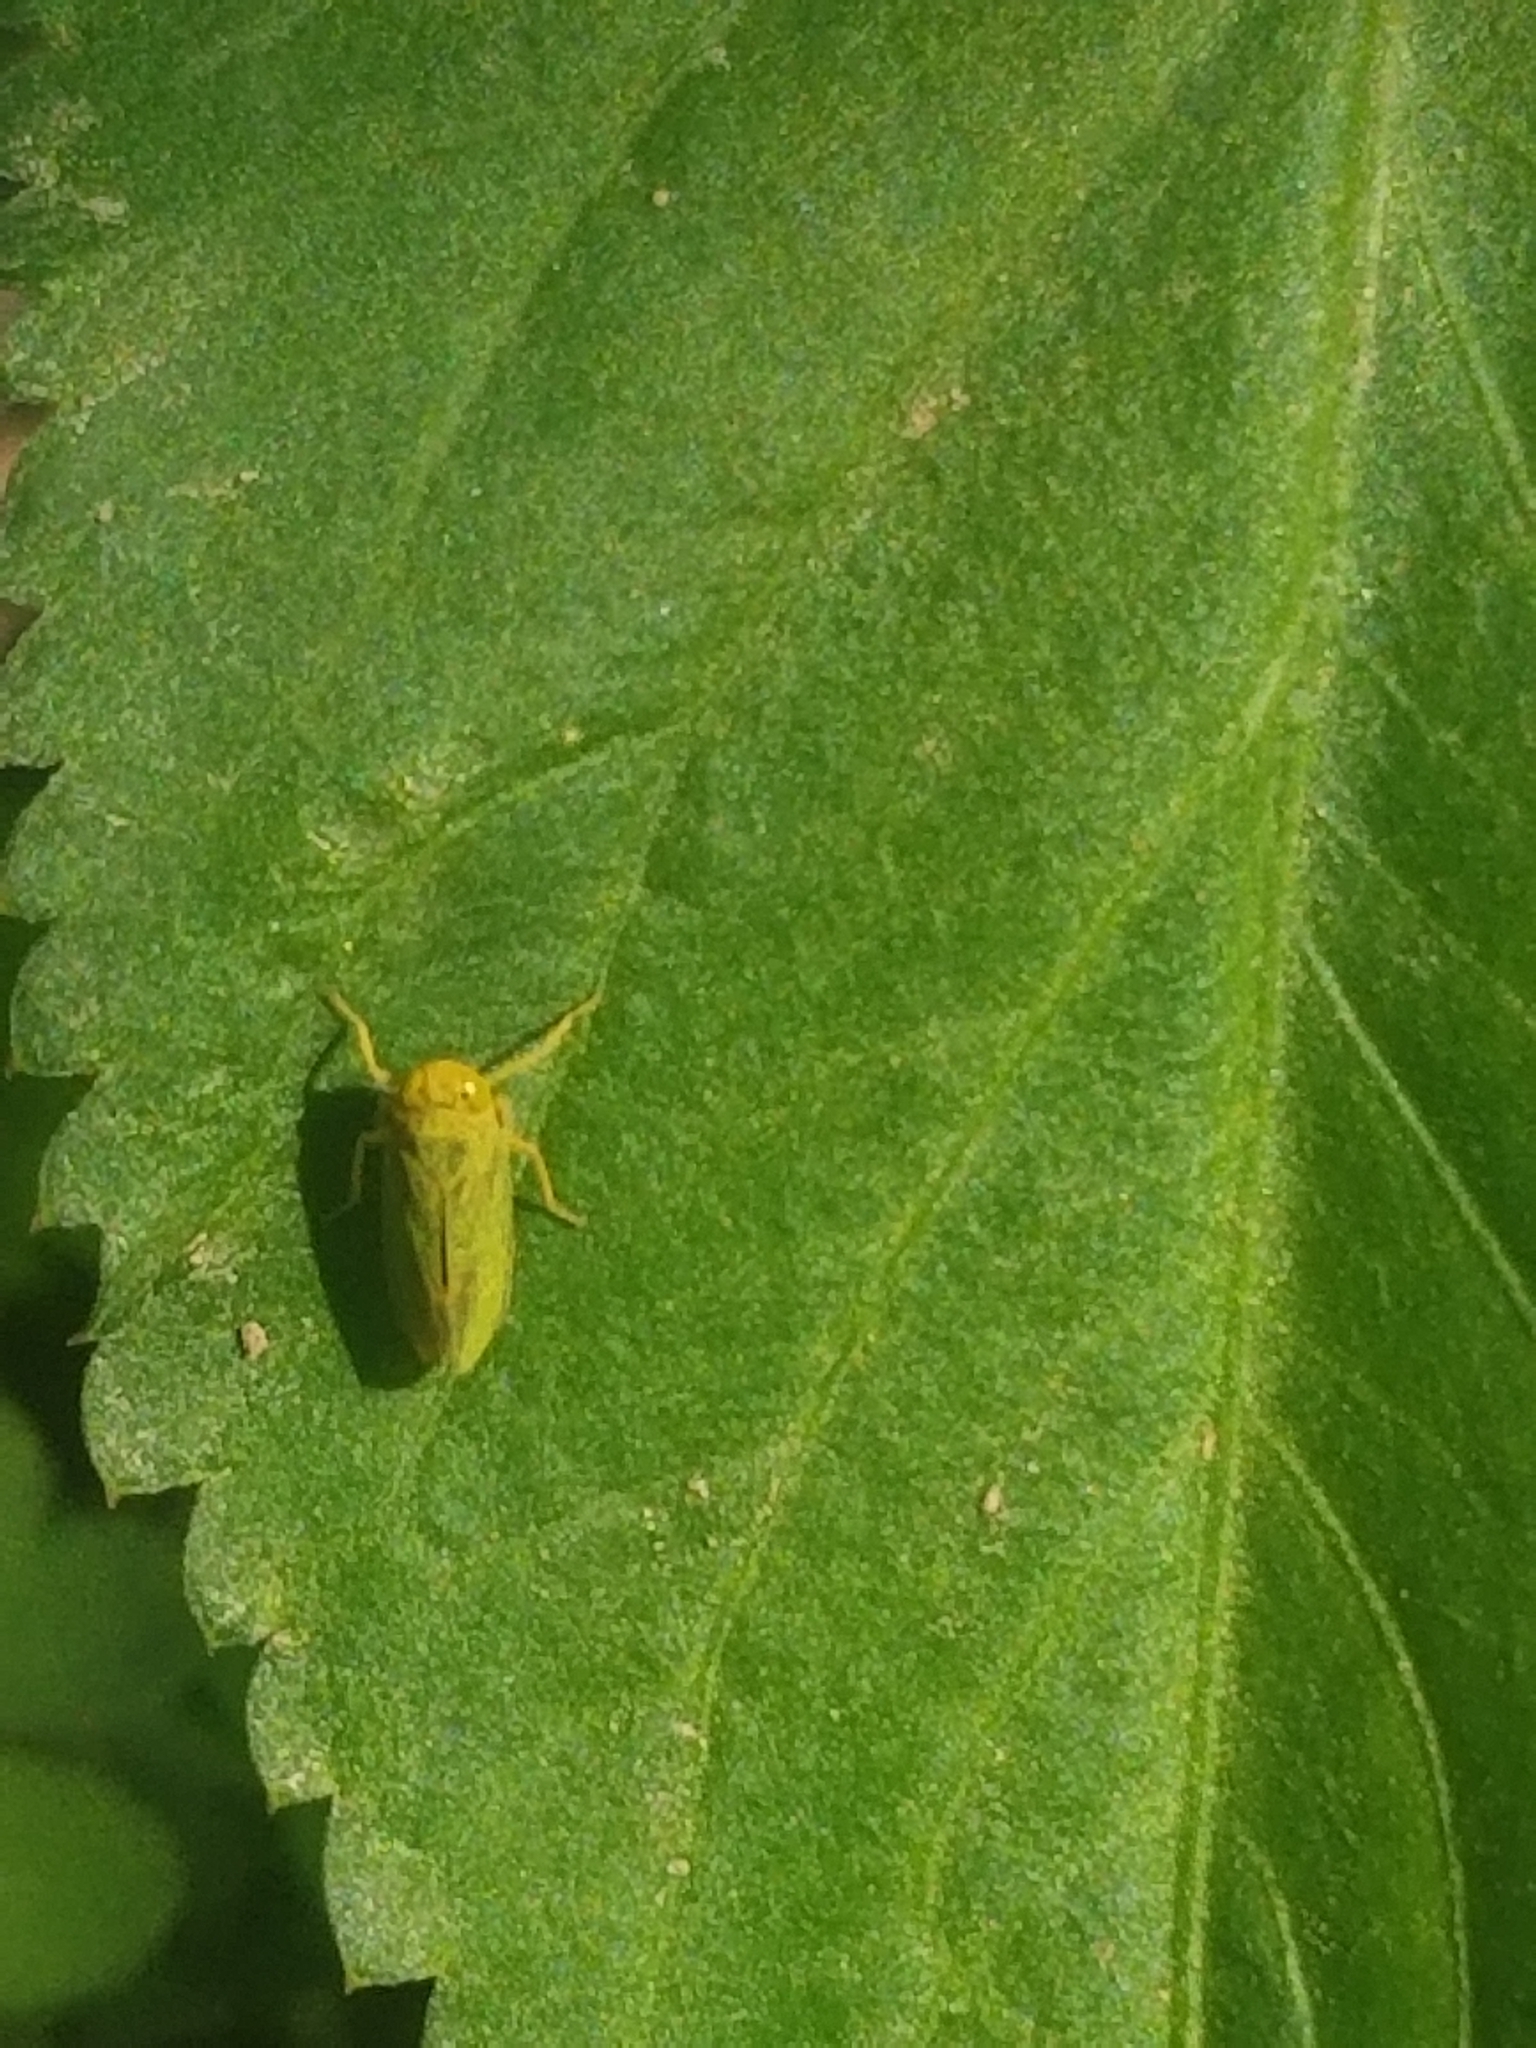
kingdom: Animalia
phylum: Arthropoda
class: Insecta
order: Hemiptera
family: Cicadellidae
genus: Jikradia
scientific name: Jikradia olitoria
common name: Coppery leafhopper
